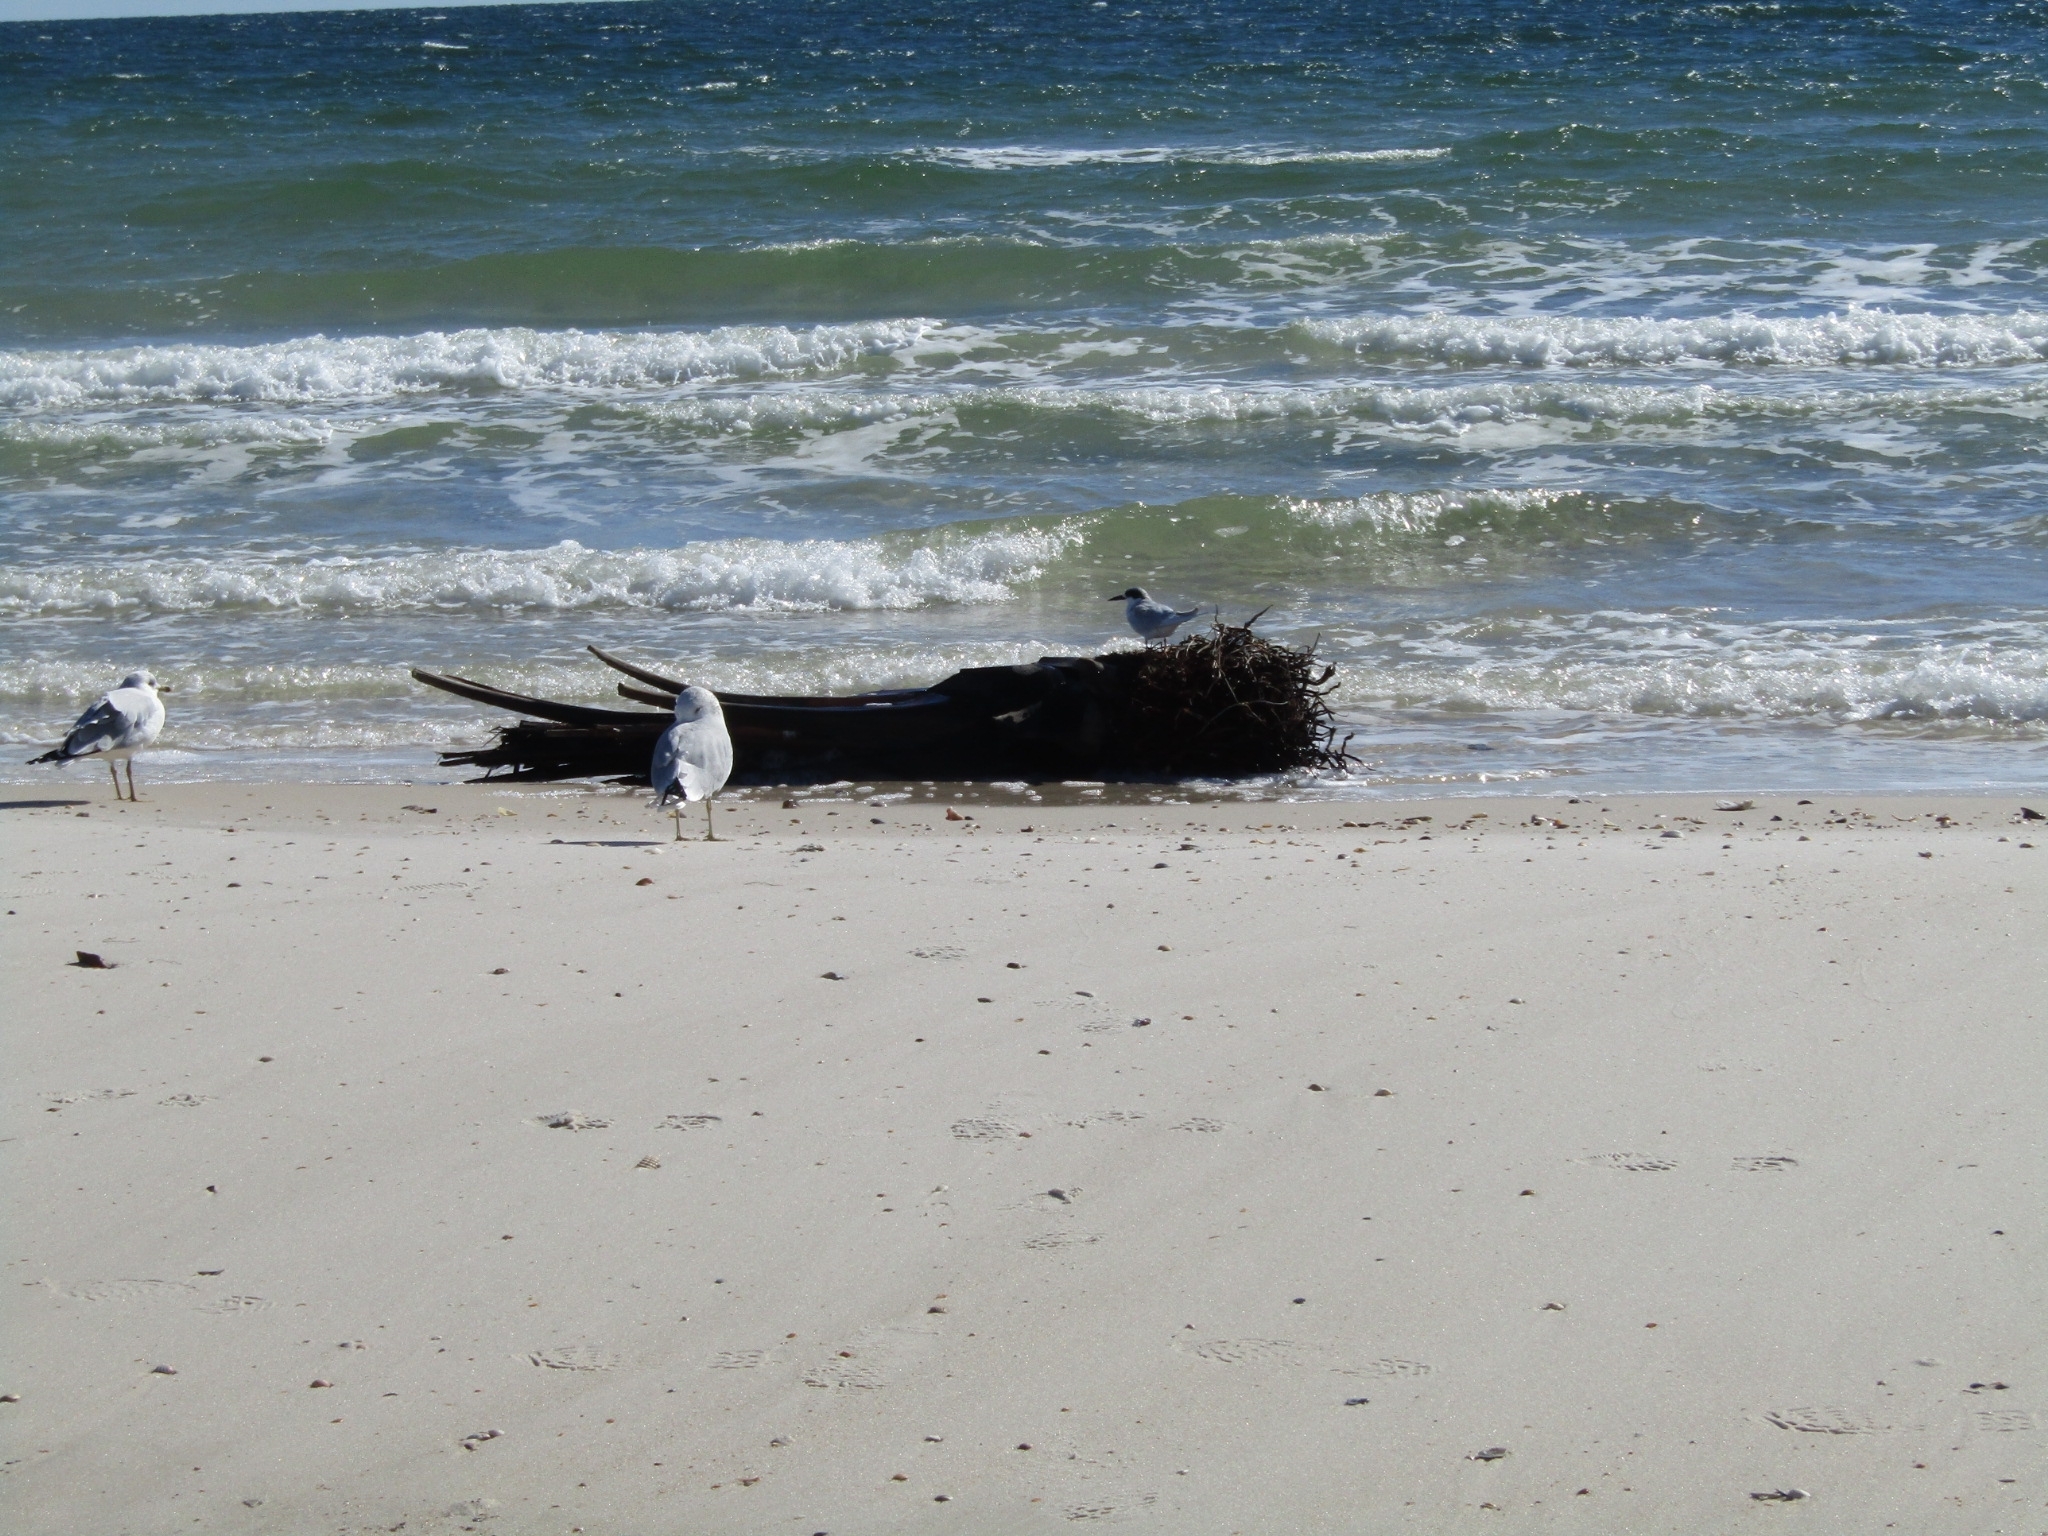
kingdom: Animalia
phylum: Chordata
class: Aves
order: Charadriiformes
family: Laridae
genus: Larus
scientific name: Larus delawarensis
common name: Ring-billed gull
